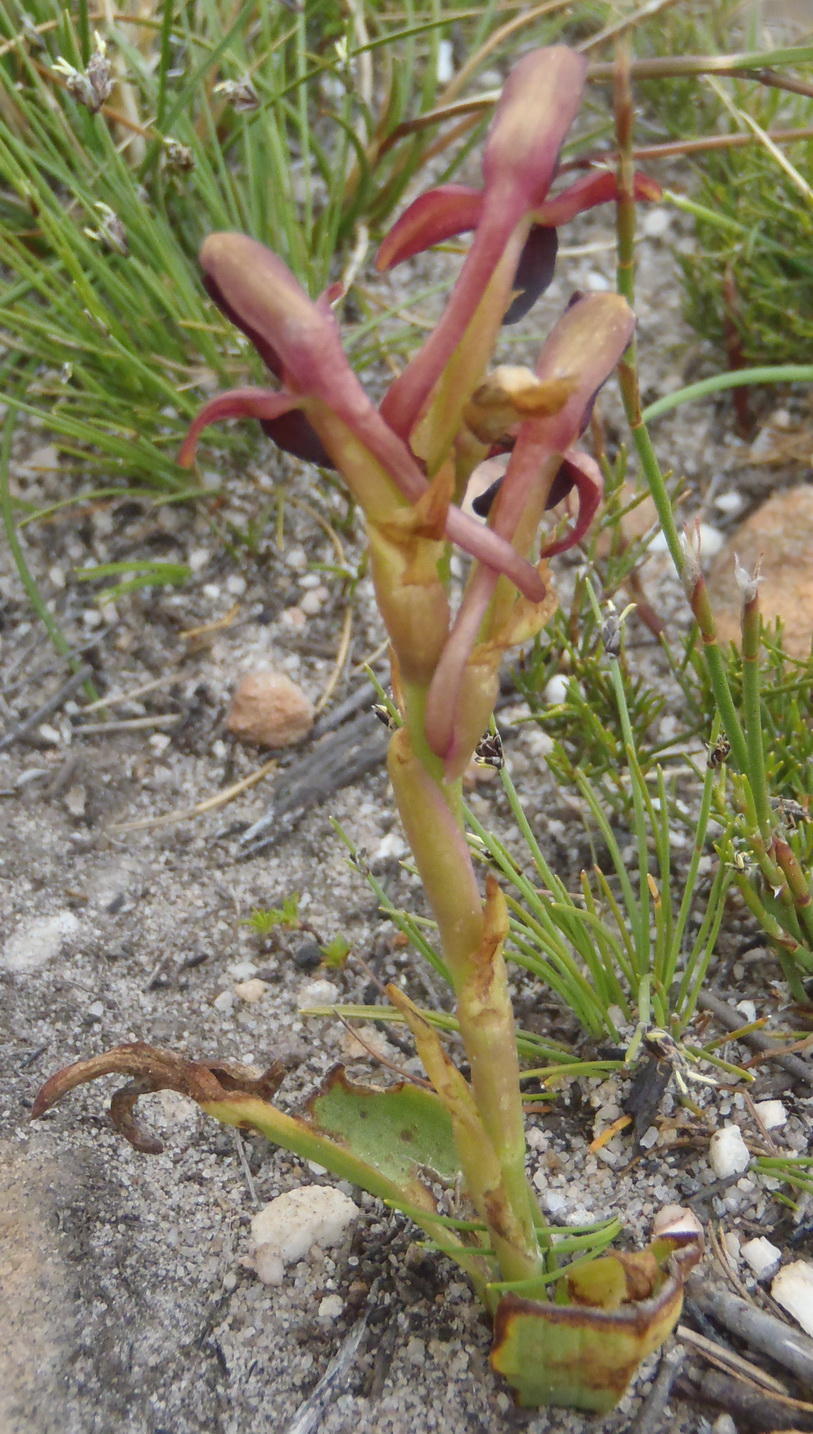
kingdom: Plantae
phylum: Tracheophyta
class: Liliopsida
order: Asparagales
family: Orchidaceae
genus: Disa
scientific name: Disa bolusiana
